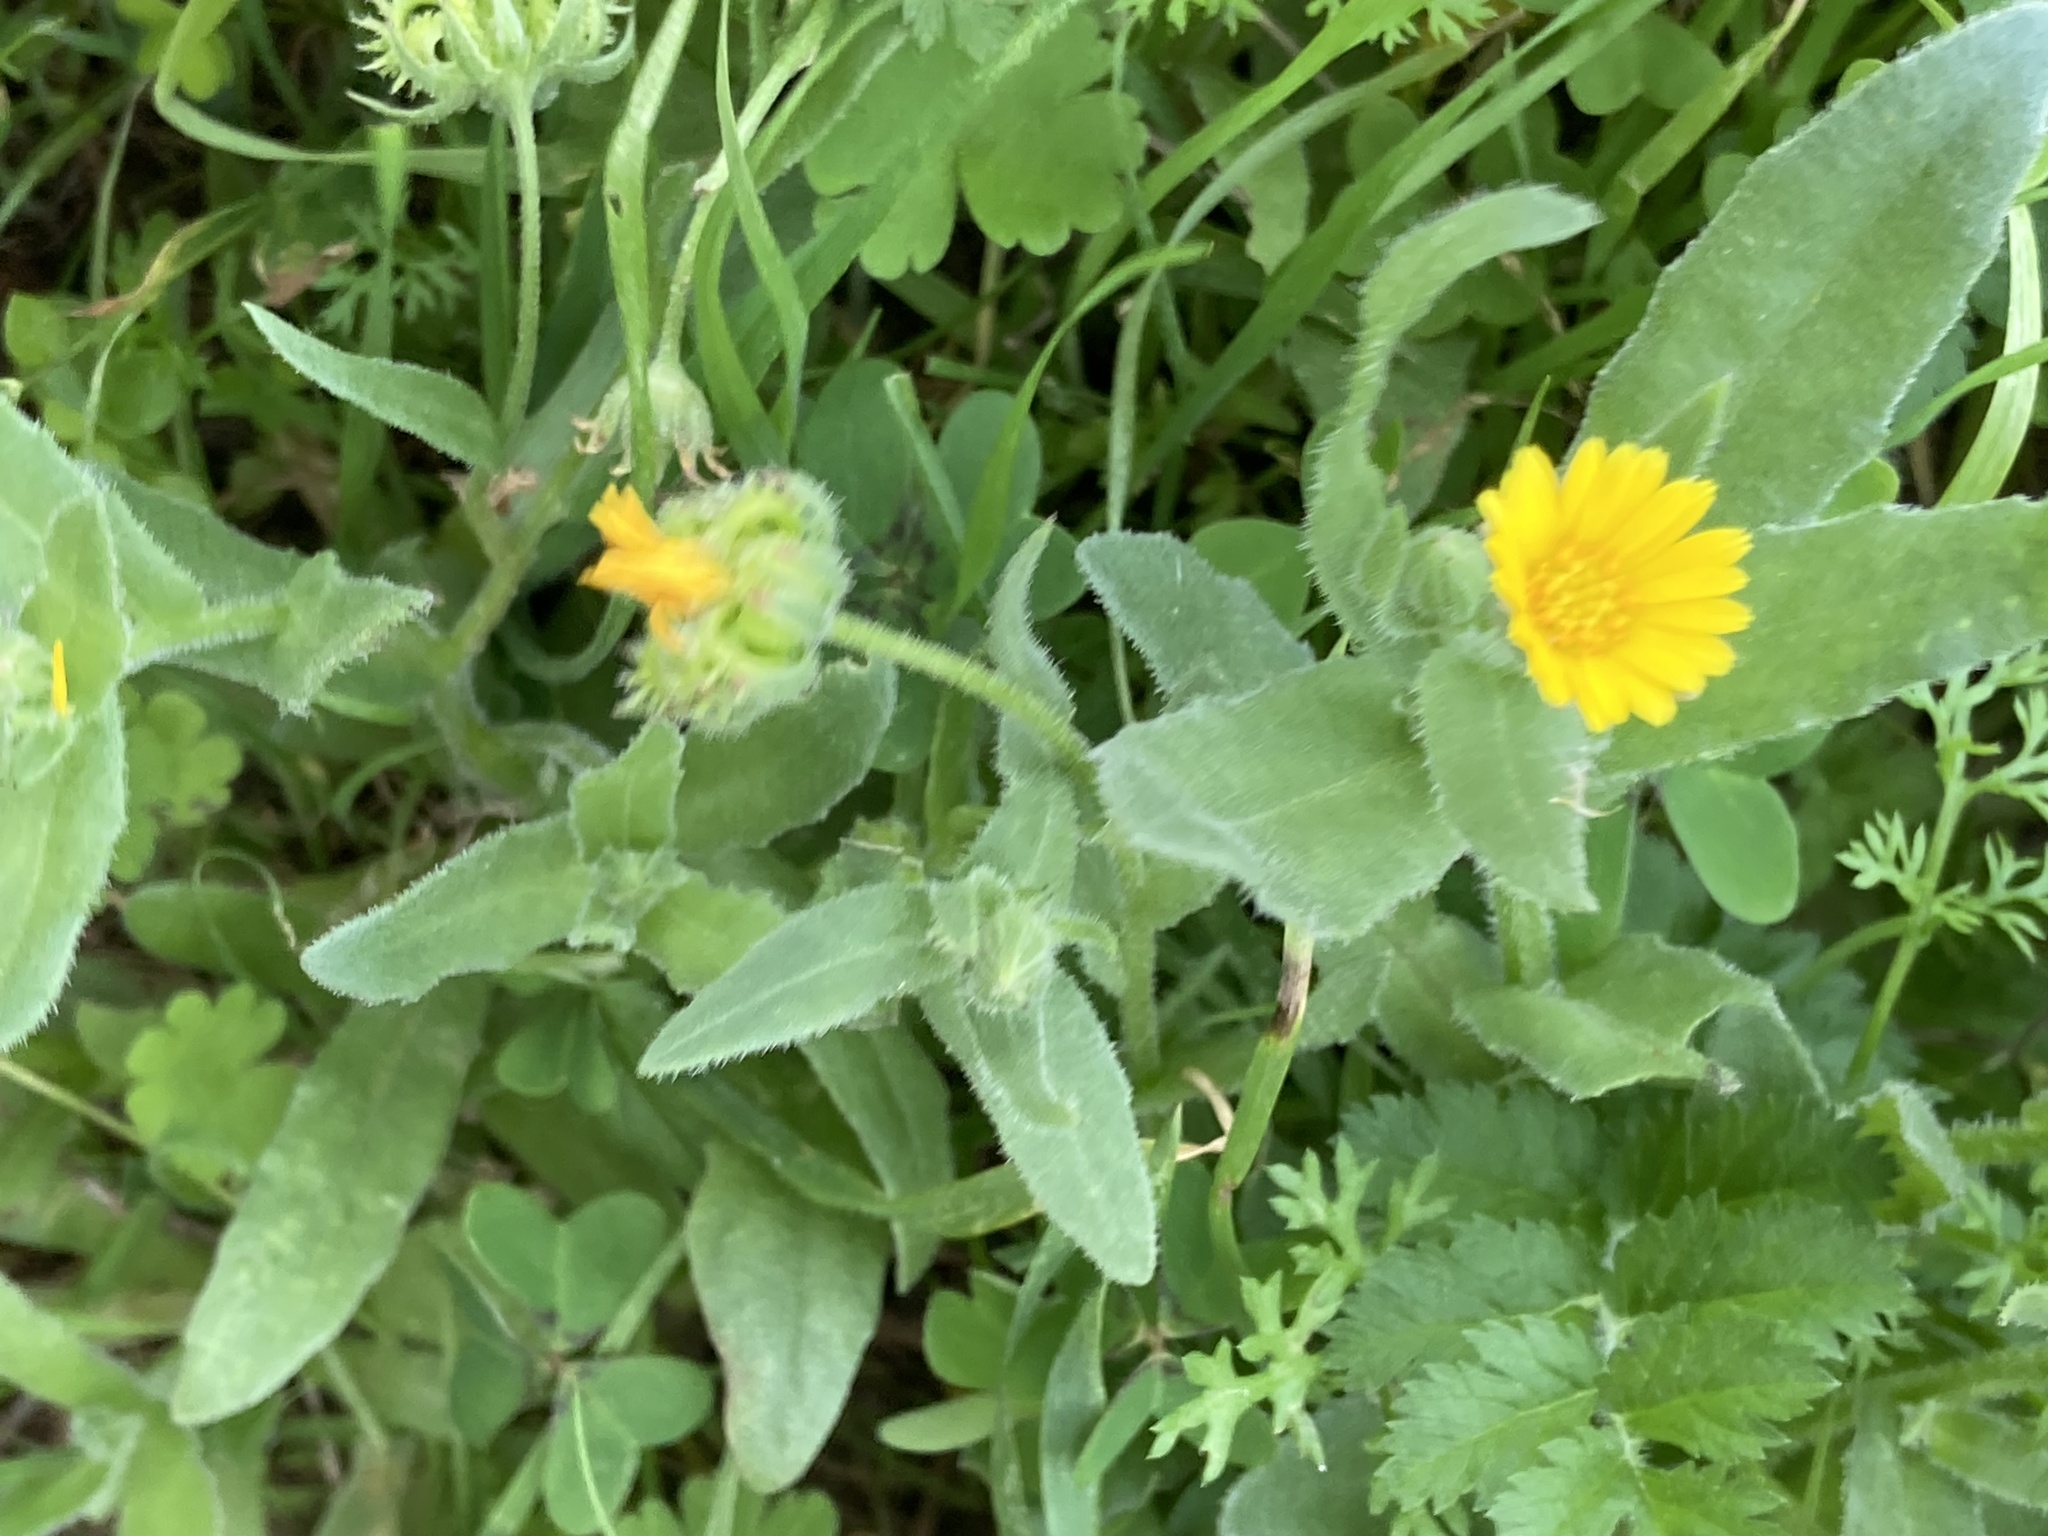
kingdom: Plantae
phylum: Tracheophyta
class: Magnoliopsida
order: Asterales
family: Asteraceae
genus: Calendula
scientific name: Calendula arvensis
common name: Field marigold
